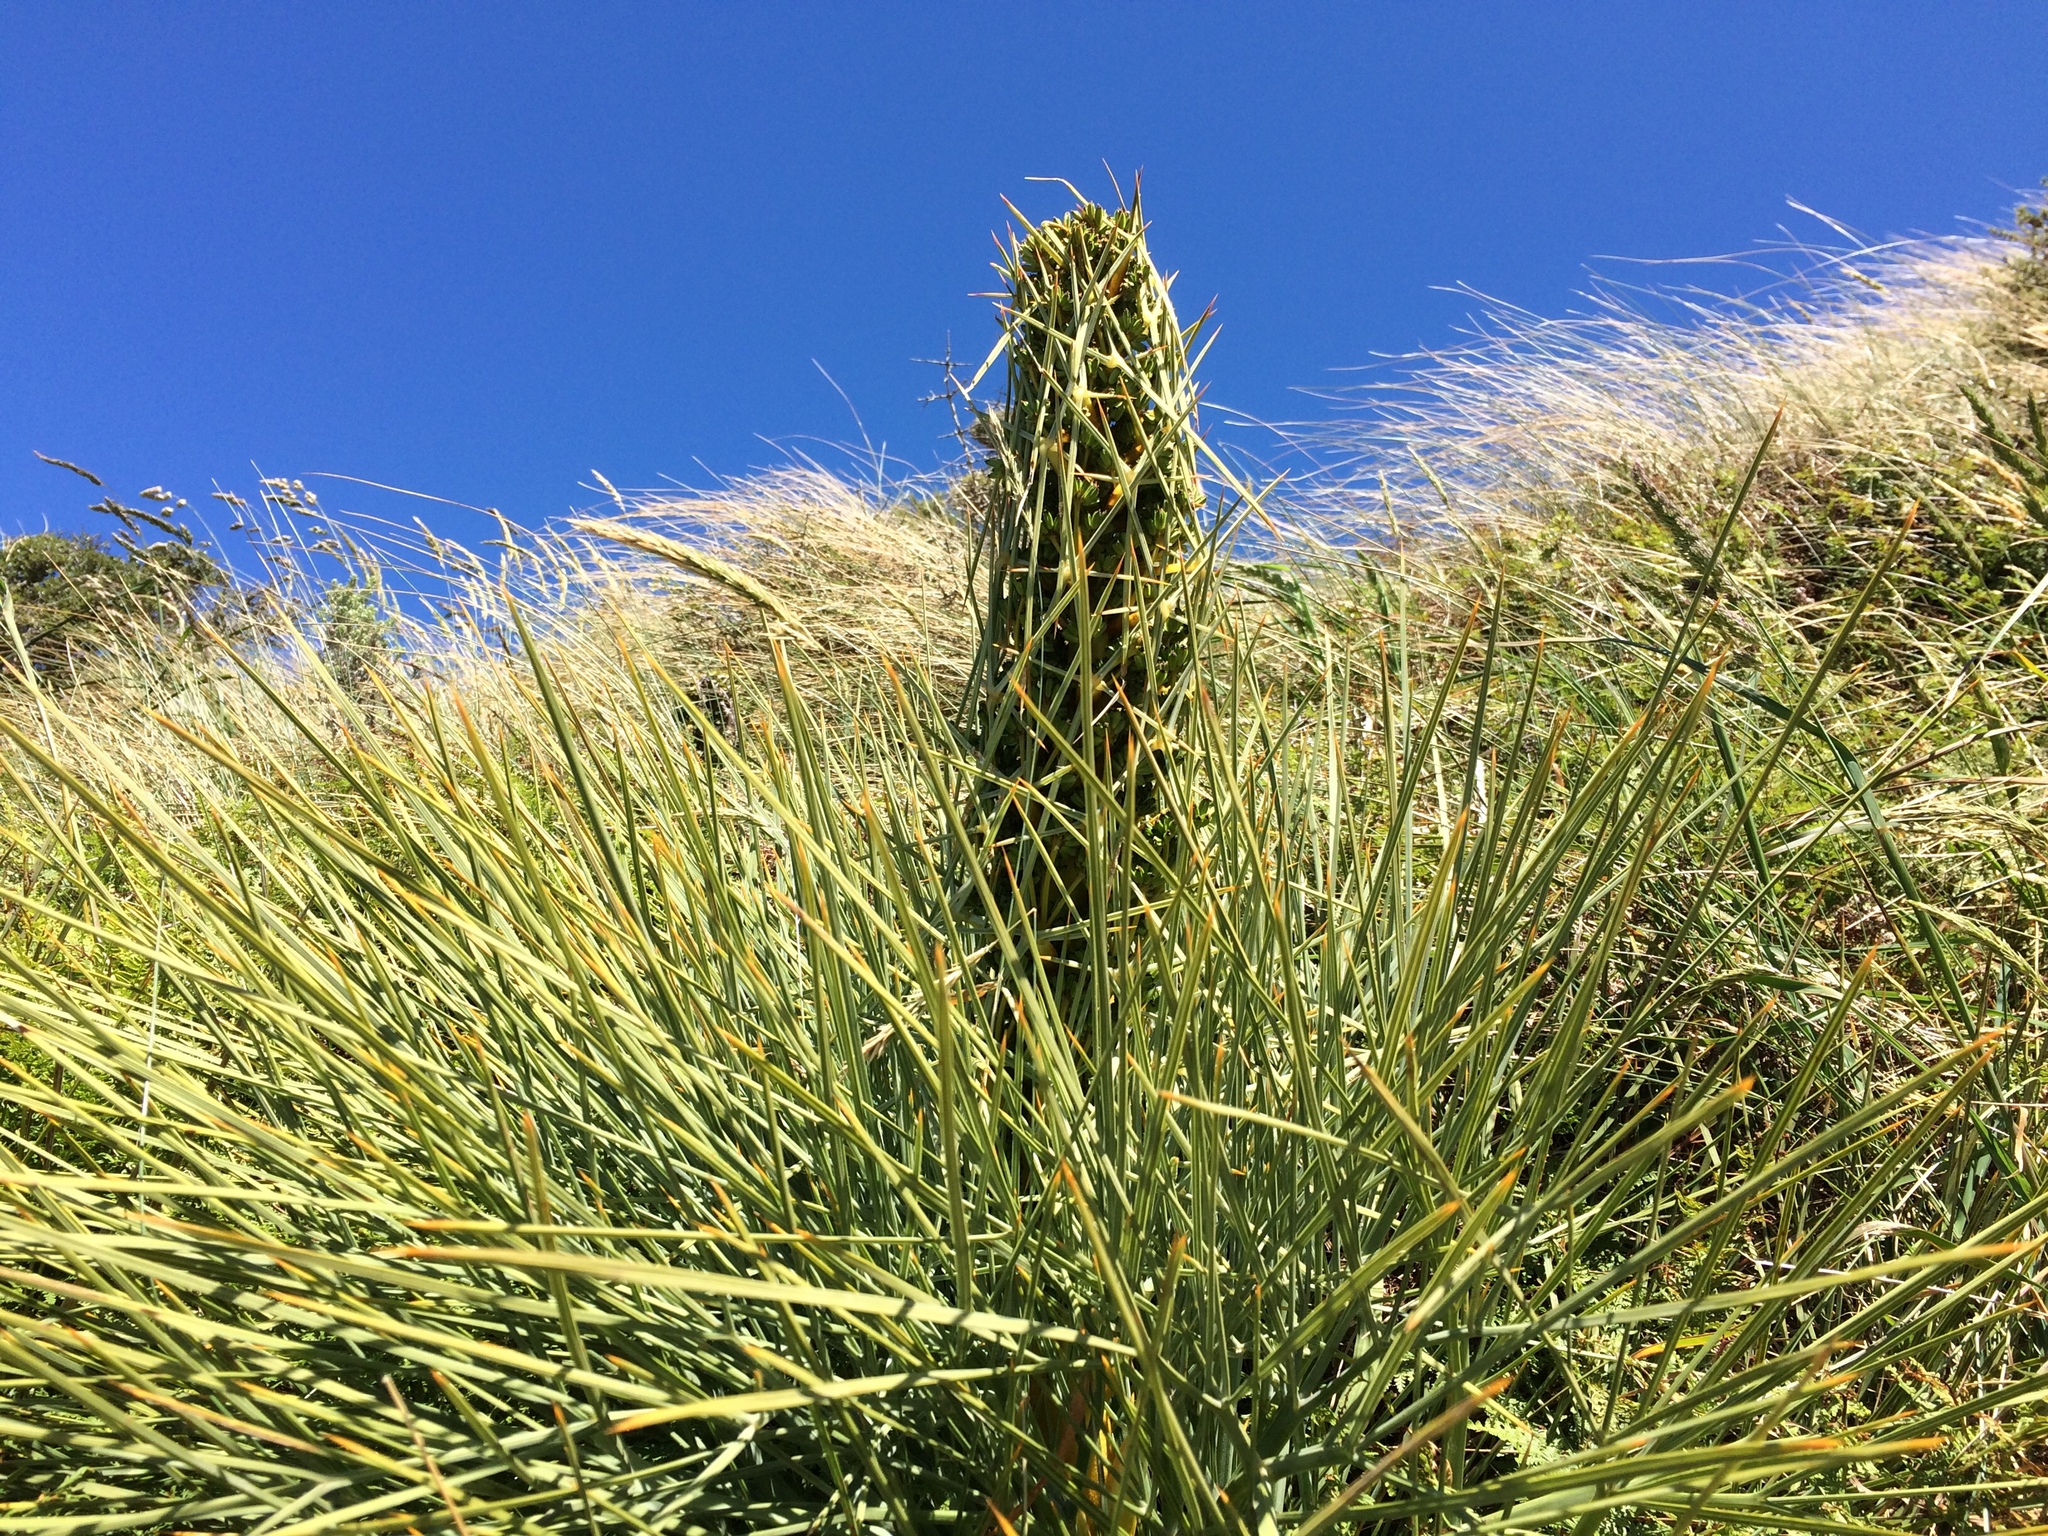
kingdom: Plantae
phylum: Tracheophyta
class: Magnoliopsida
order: Apiales
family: Apiaceae
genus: Aciphylla
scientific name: Aciphylla squarrosa
